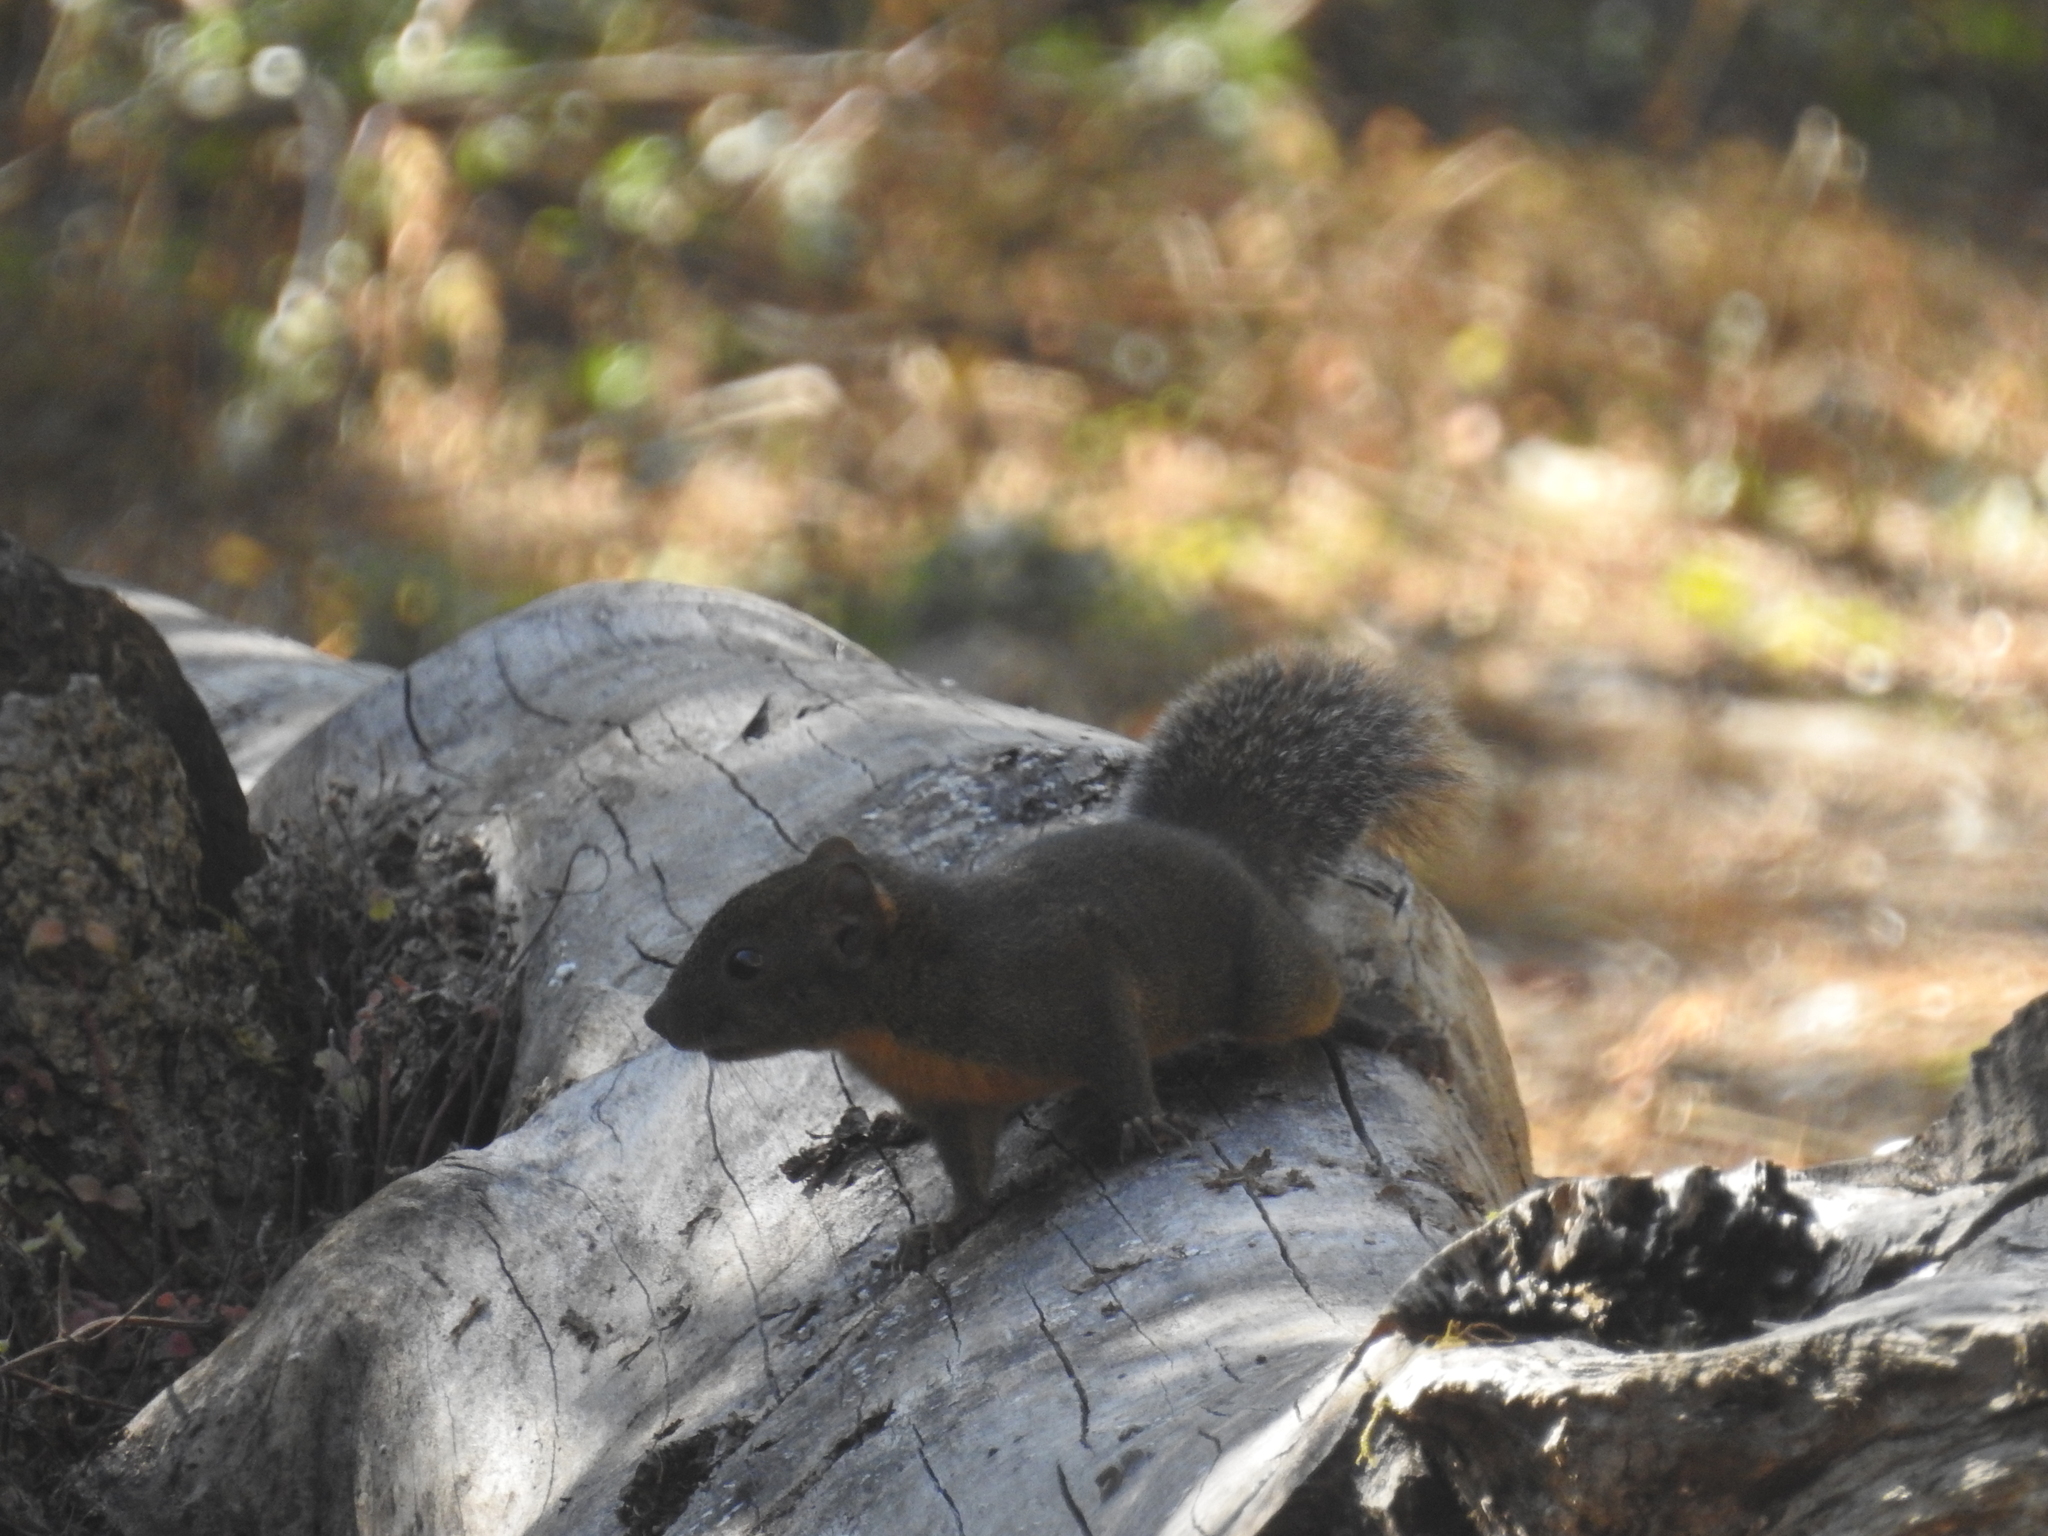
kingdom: Animalia
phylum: Chordata
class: Mammalia
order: Rodentia
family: Sciuridae
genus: Dremomys
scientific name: Dremomys lokriah
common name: Orange-bellied himalayan squirrel
